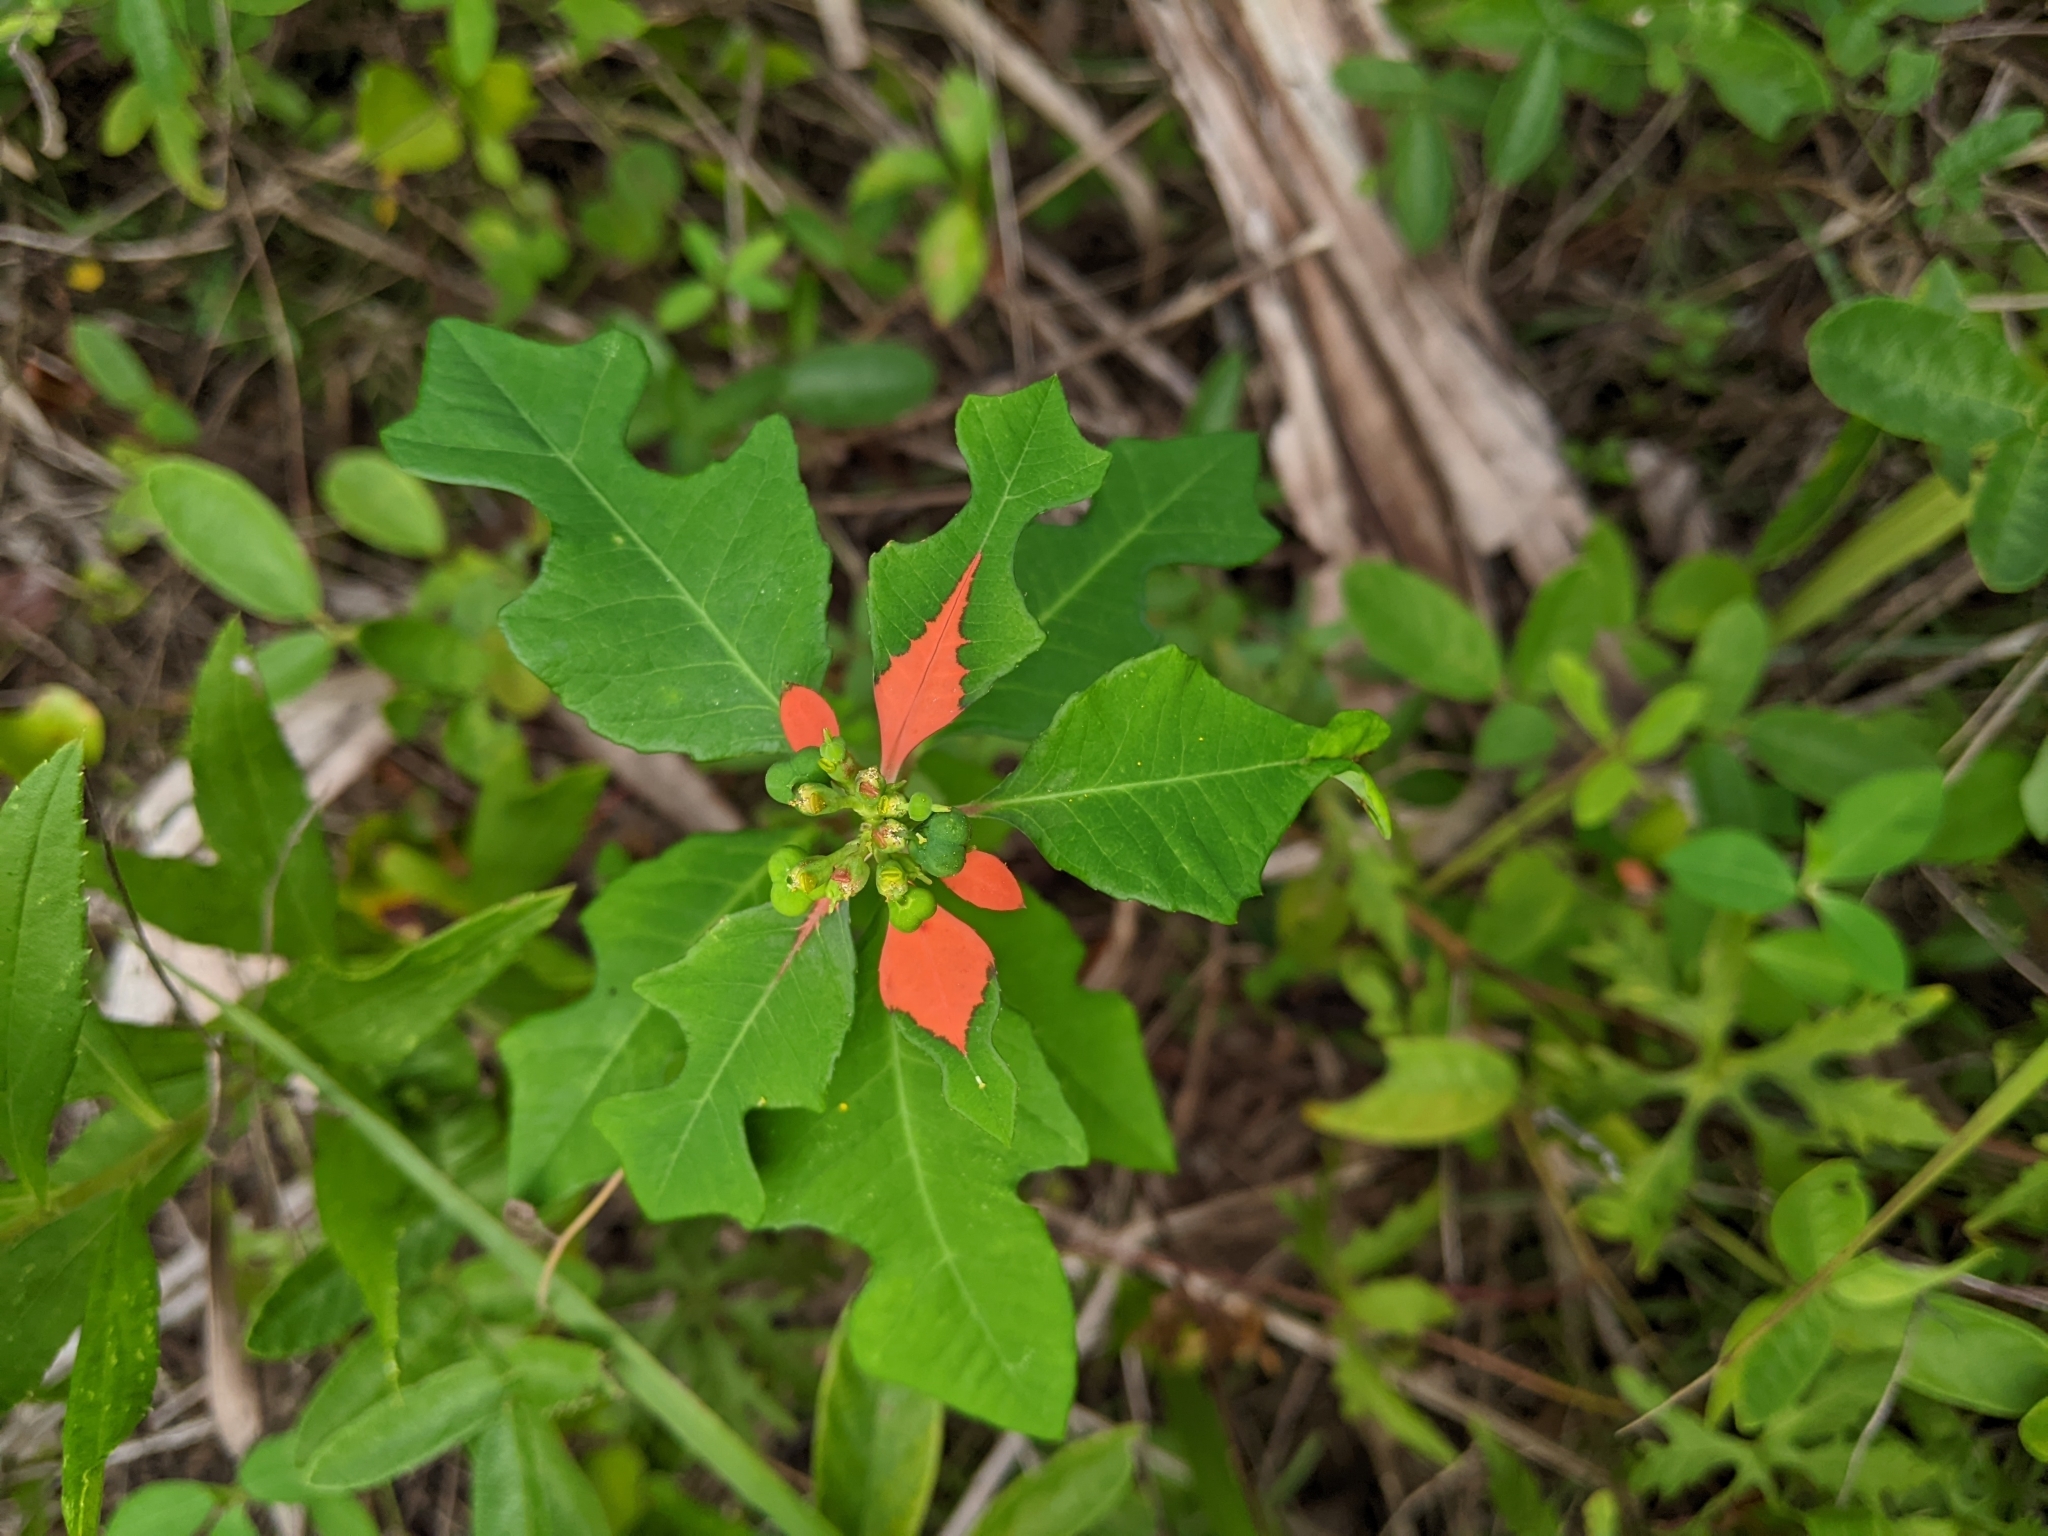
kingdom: Plantae
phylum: Tracheophyta
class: Magnoliopsida
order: Malpighiales
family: Euphorbiaceae
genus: Euphorbia
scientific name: Euphorbia heterophylla
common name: Mexican fireplant
